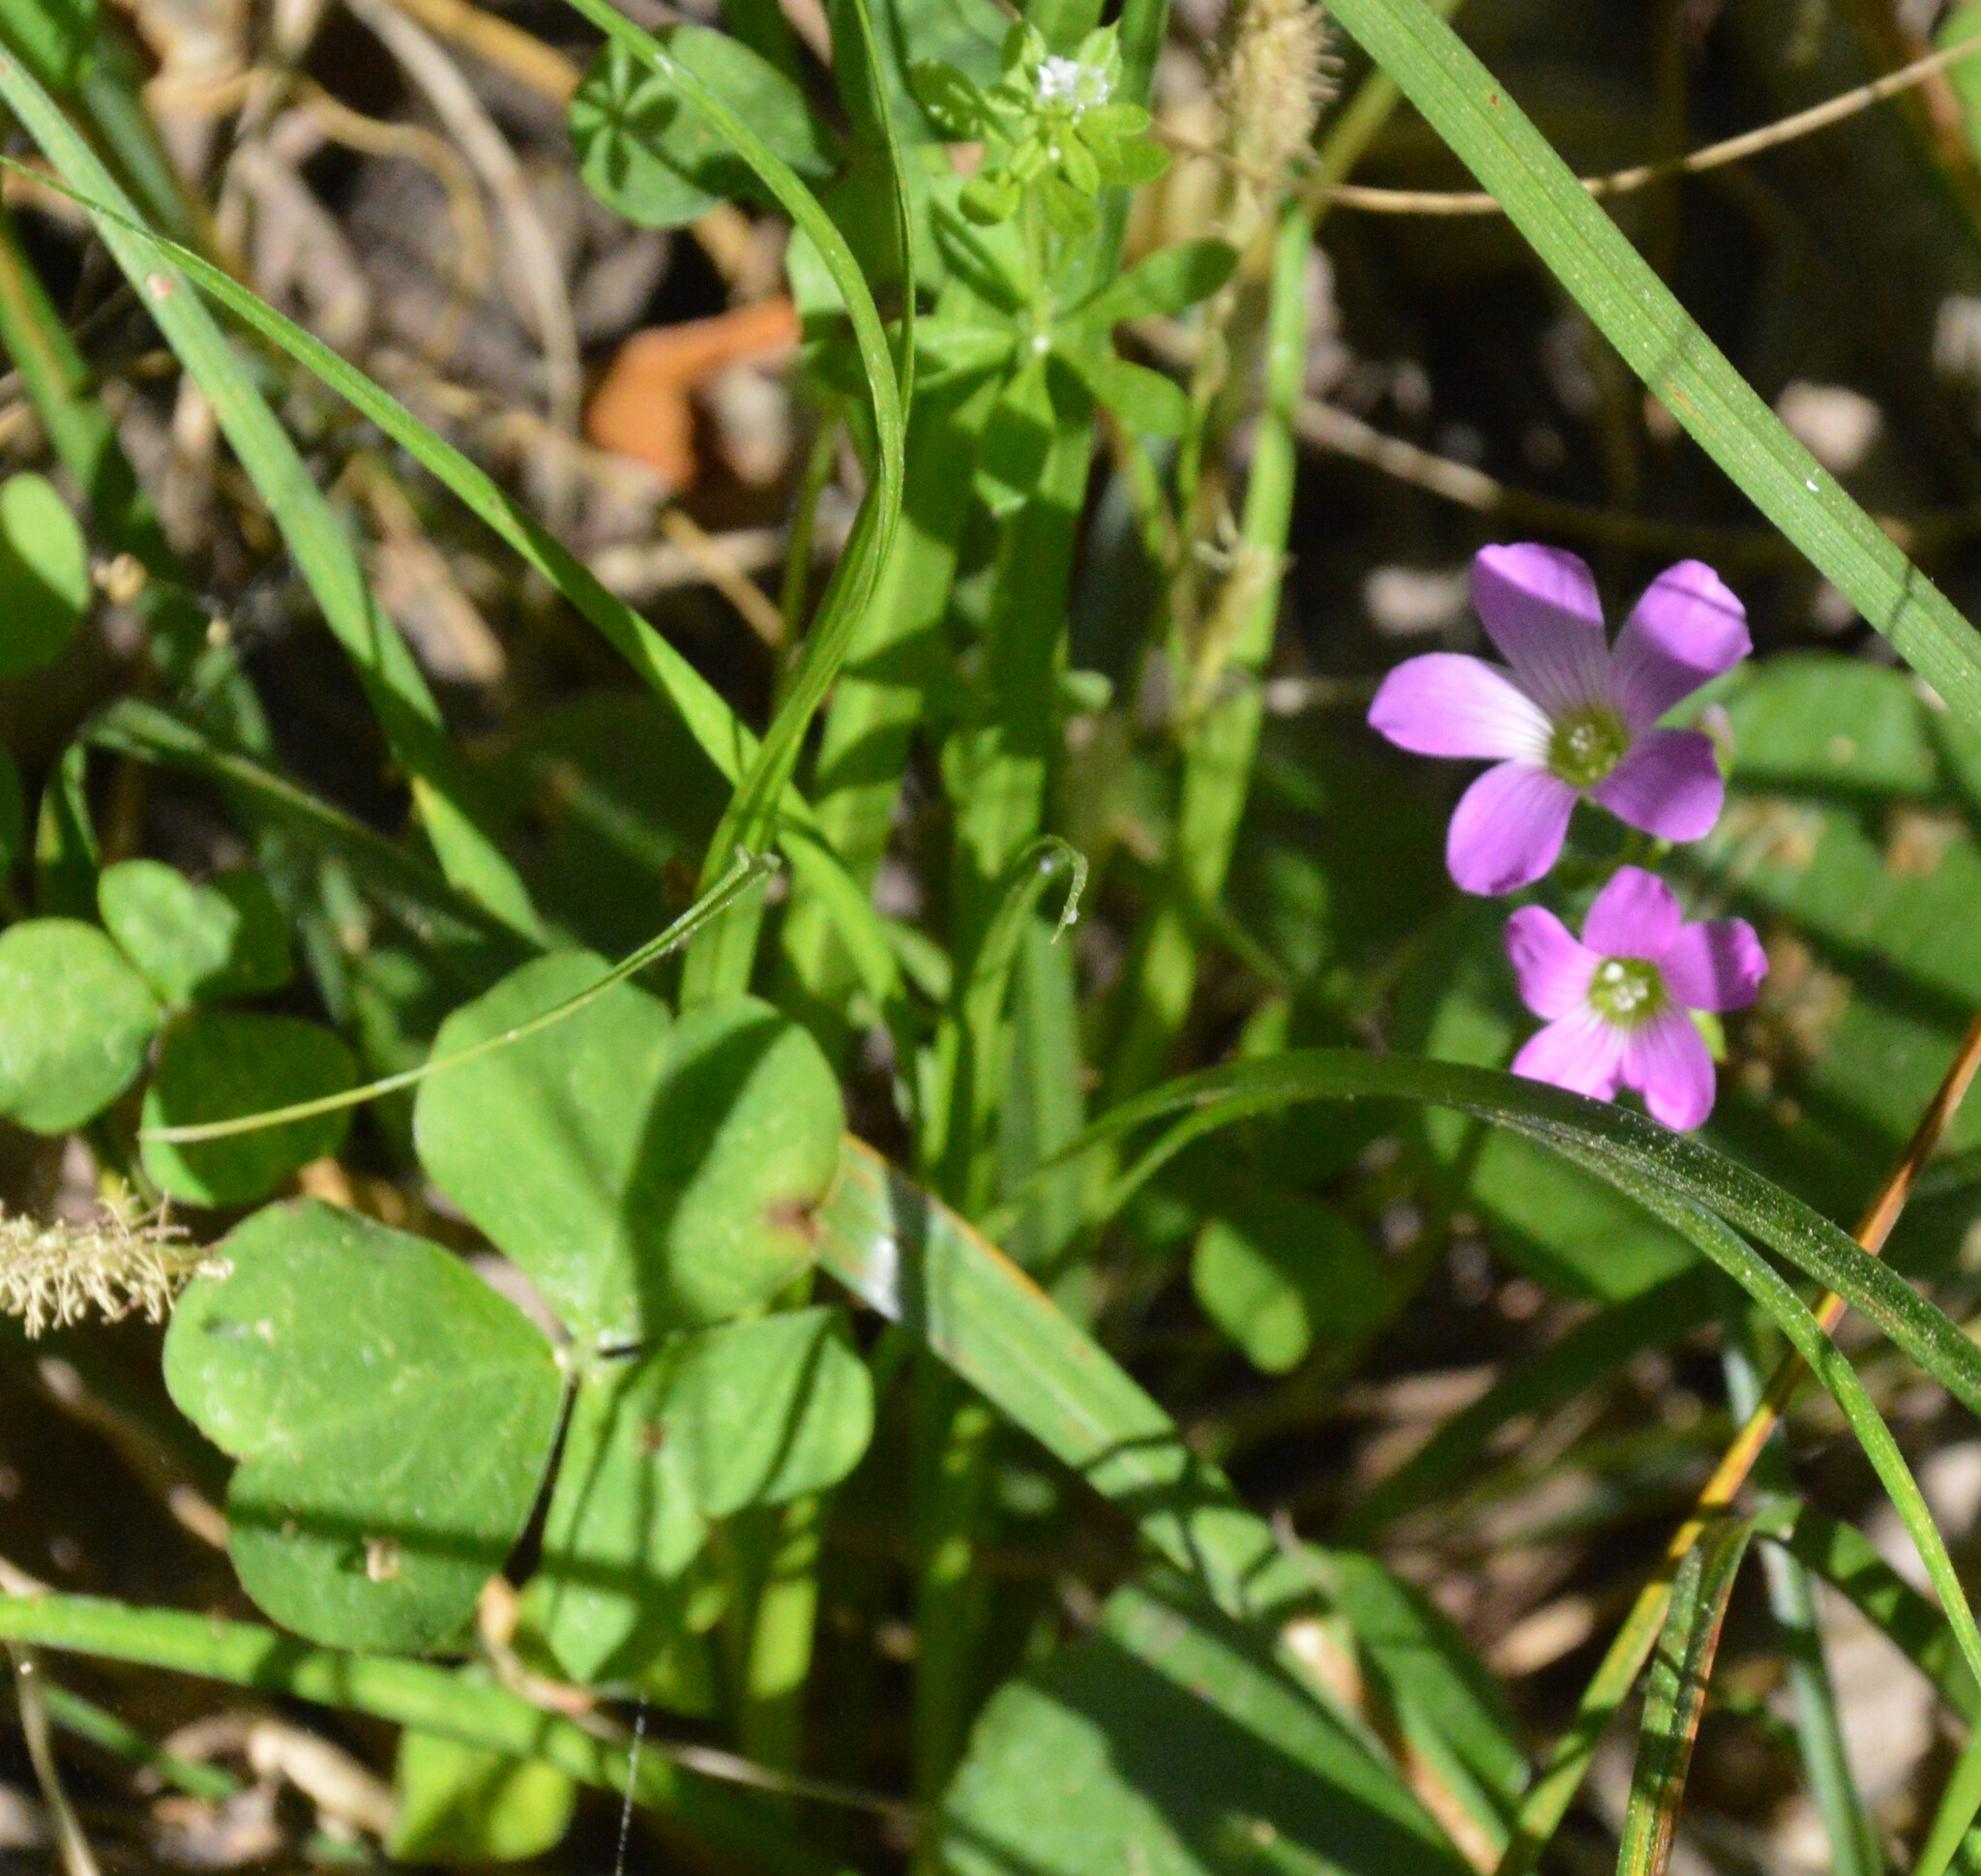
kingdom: Plantae
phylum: Tracheophyta
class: Magnoliopsida
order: Oxalidales
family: Oxalidaceae
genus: Oxalis
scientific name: Oxalis debilis
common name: Large-flowered pink-sorrel
